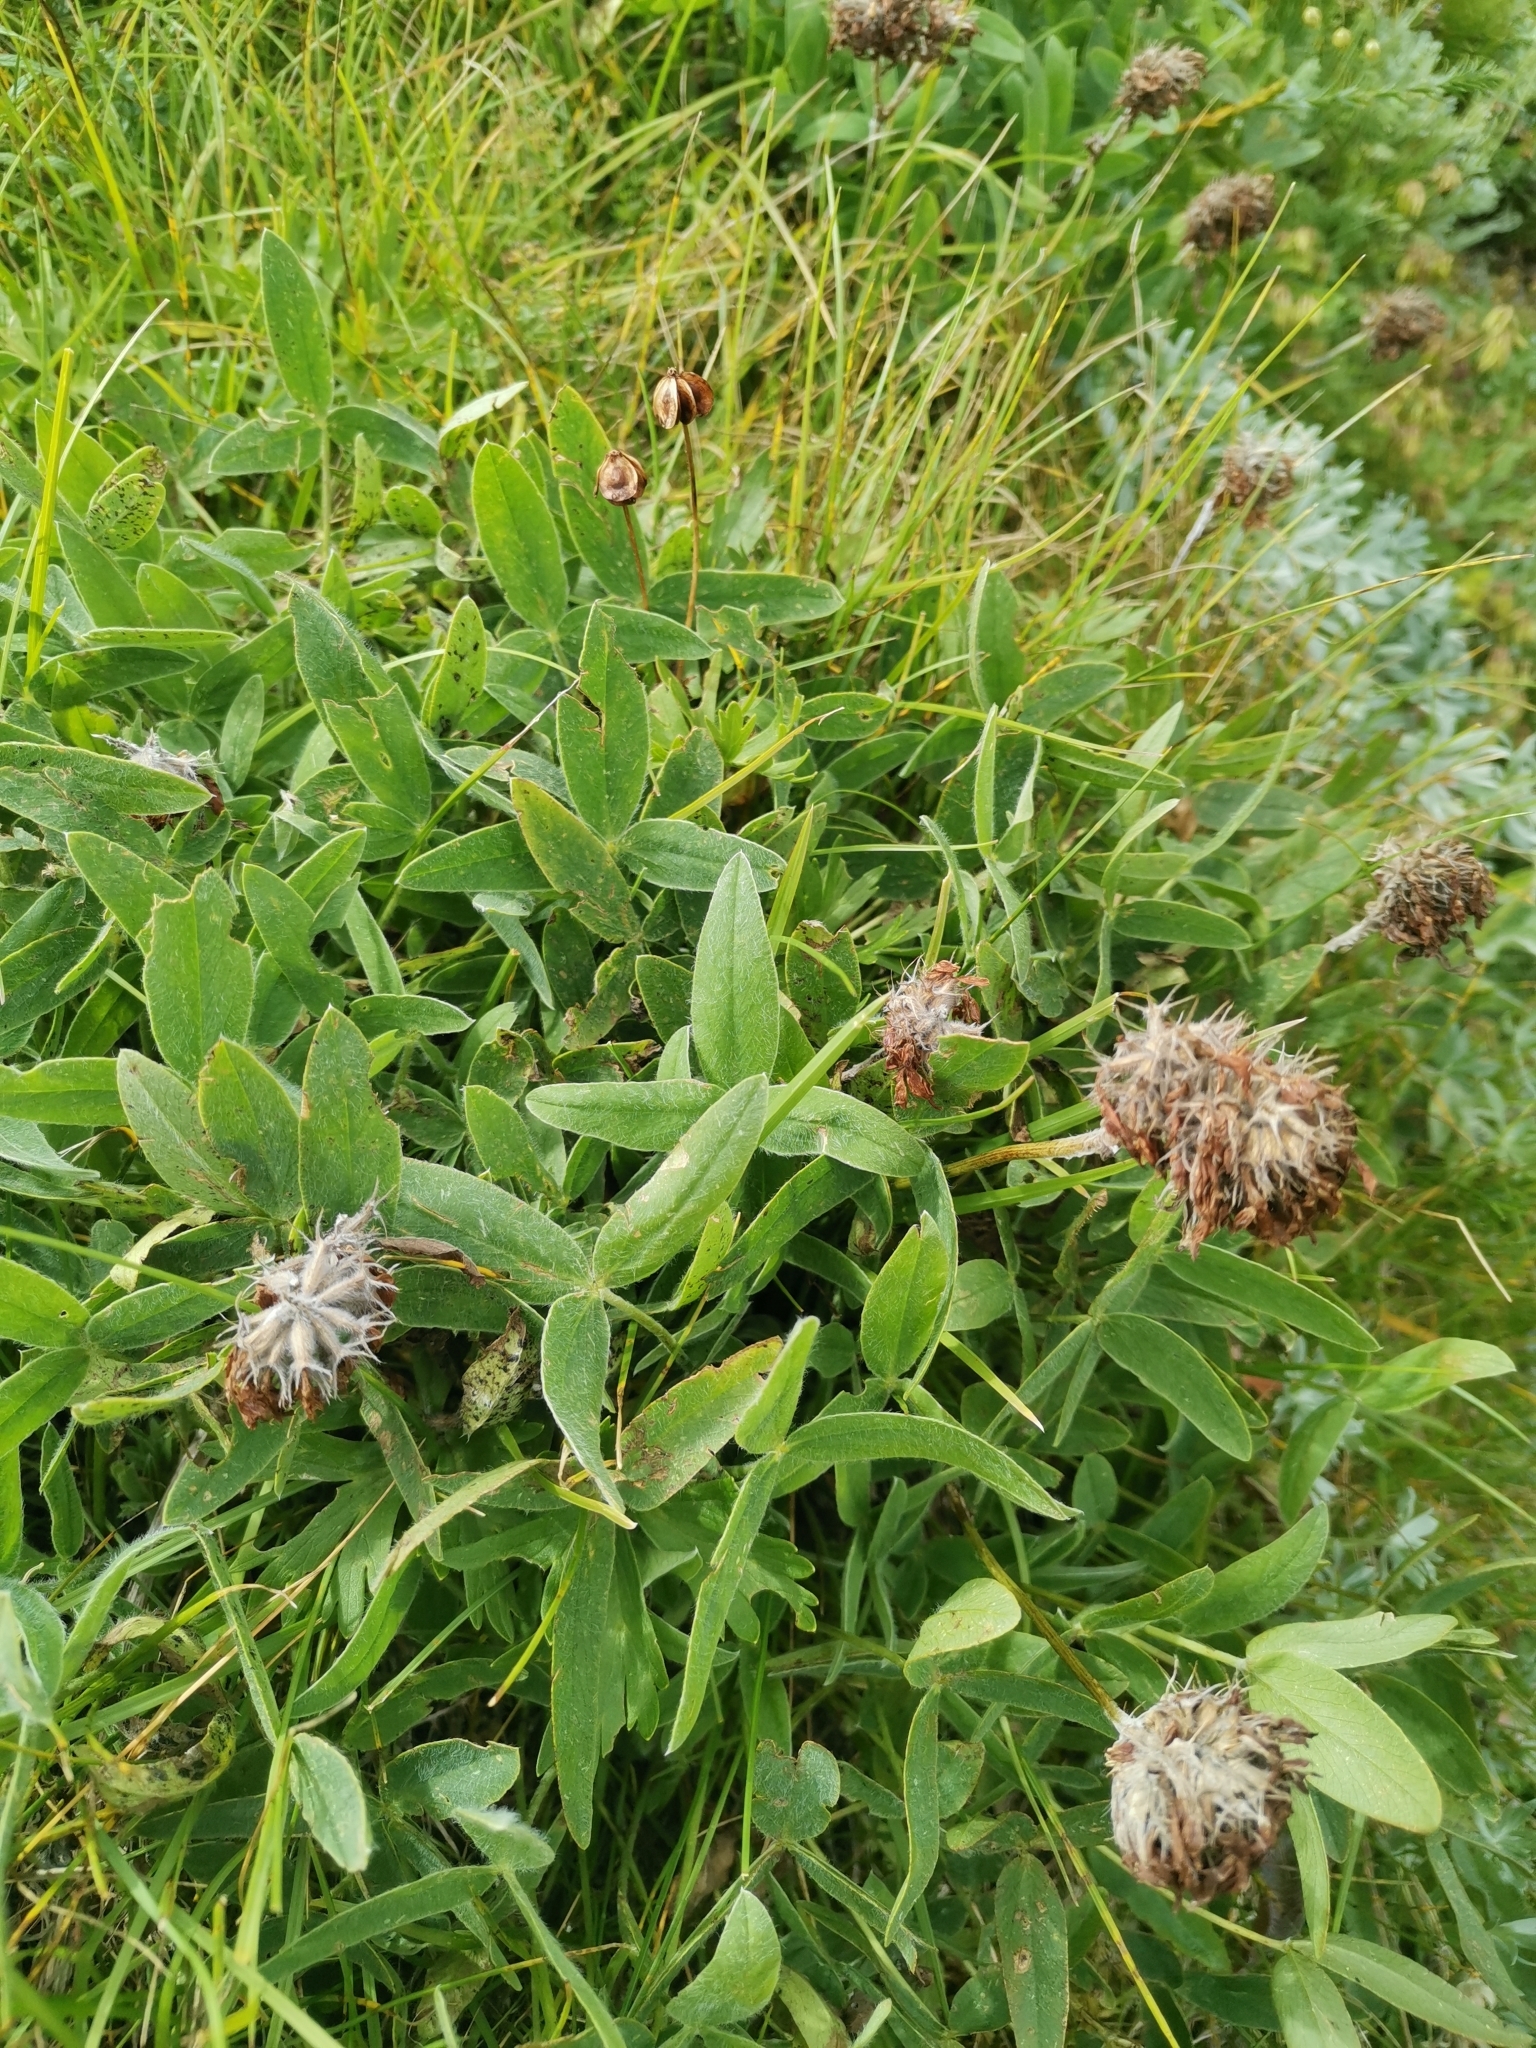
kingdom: Plantae
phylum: Tracheophyta
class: Magnoliopsida
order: Fabales
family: Fabaceae
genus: Trifolium
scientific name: Trifolium noricum
